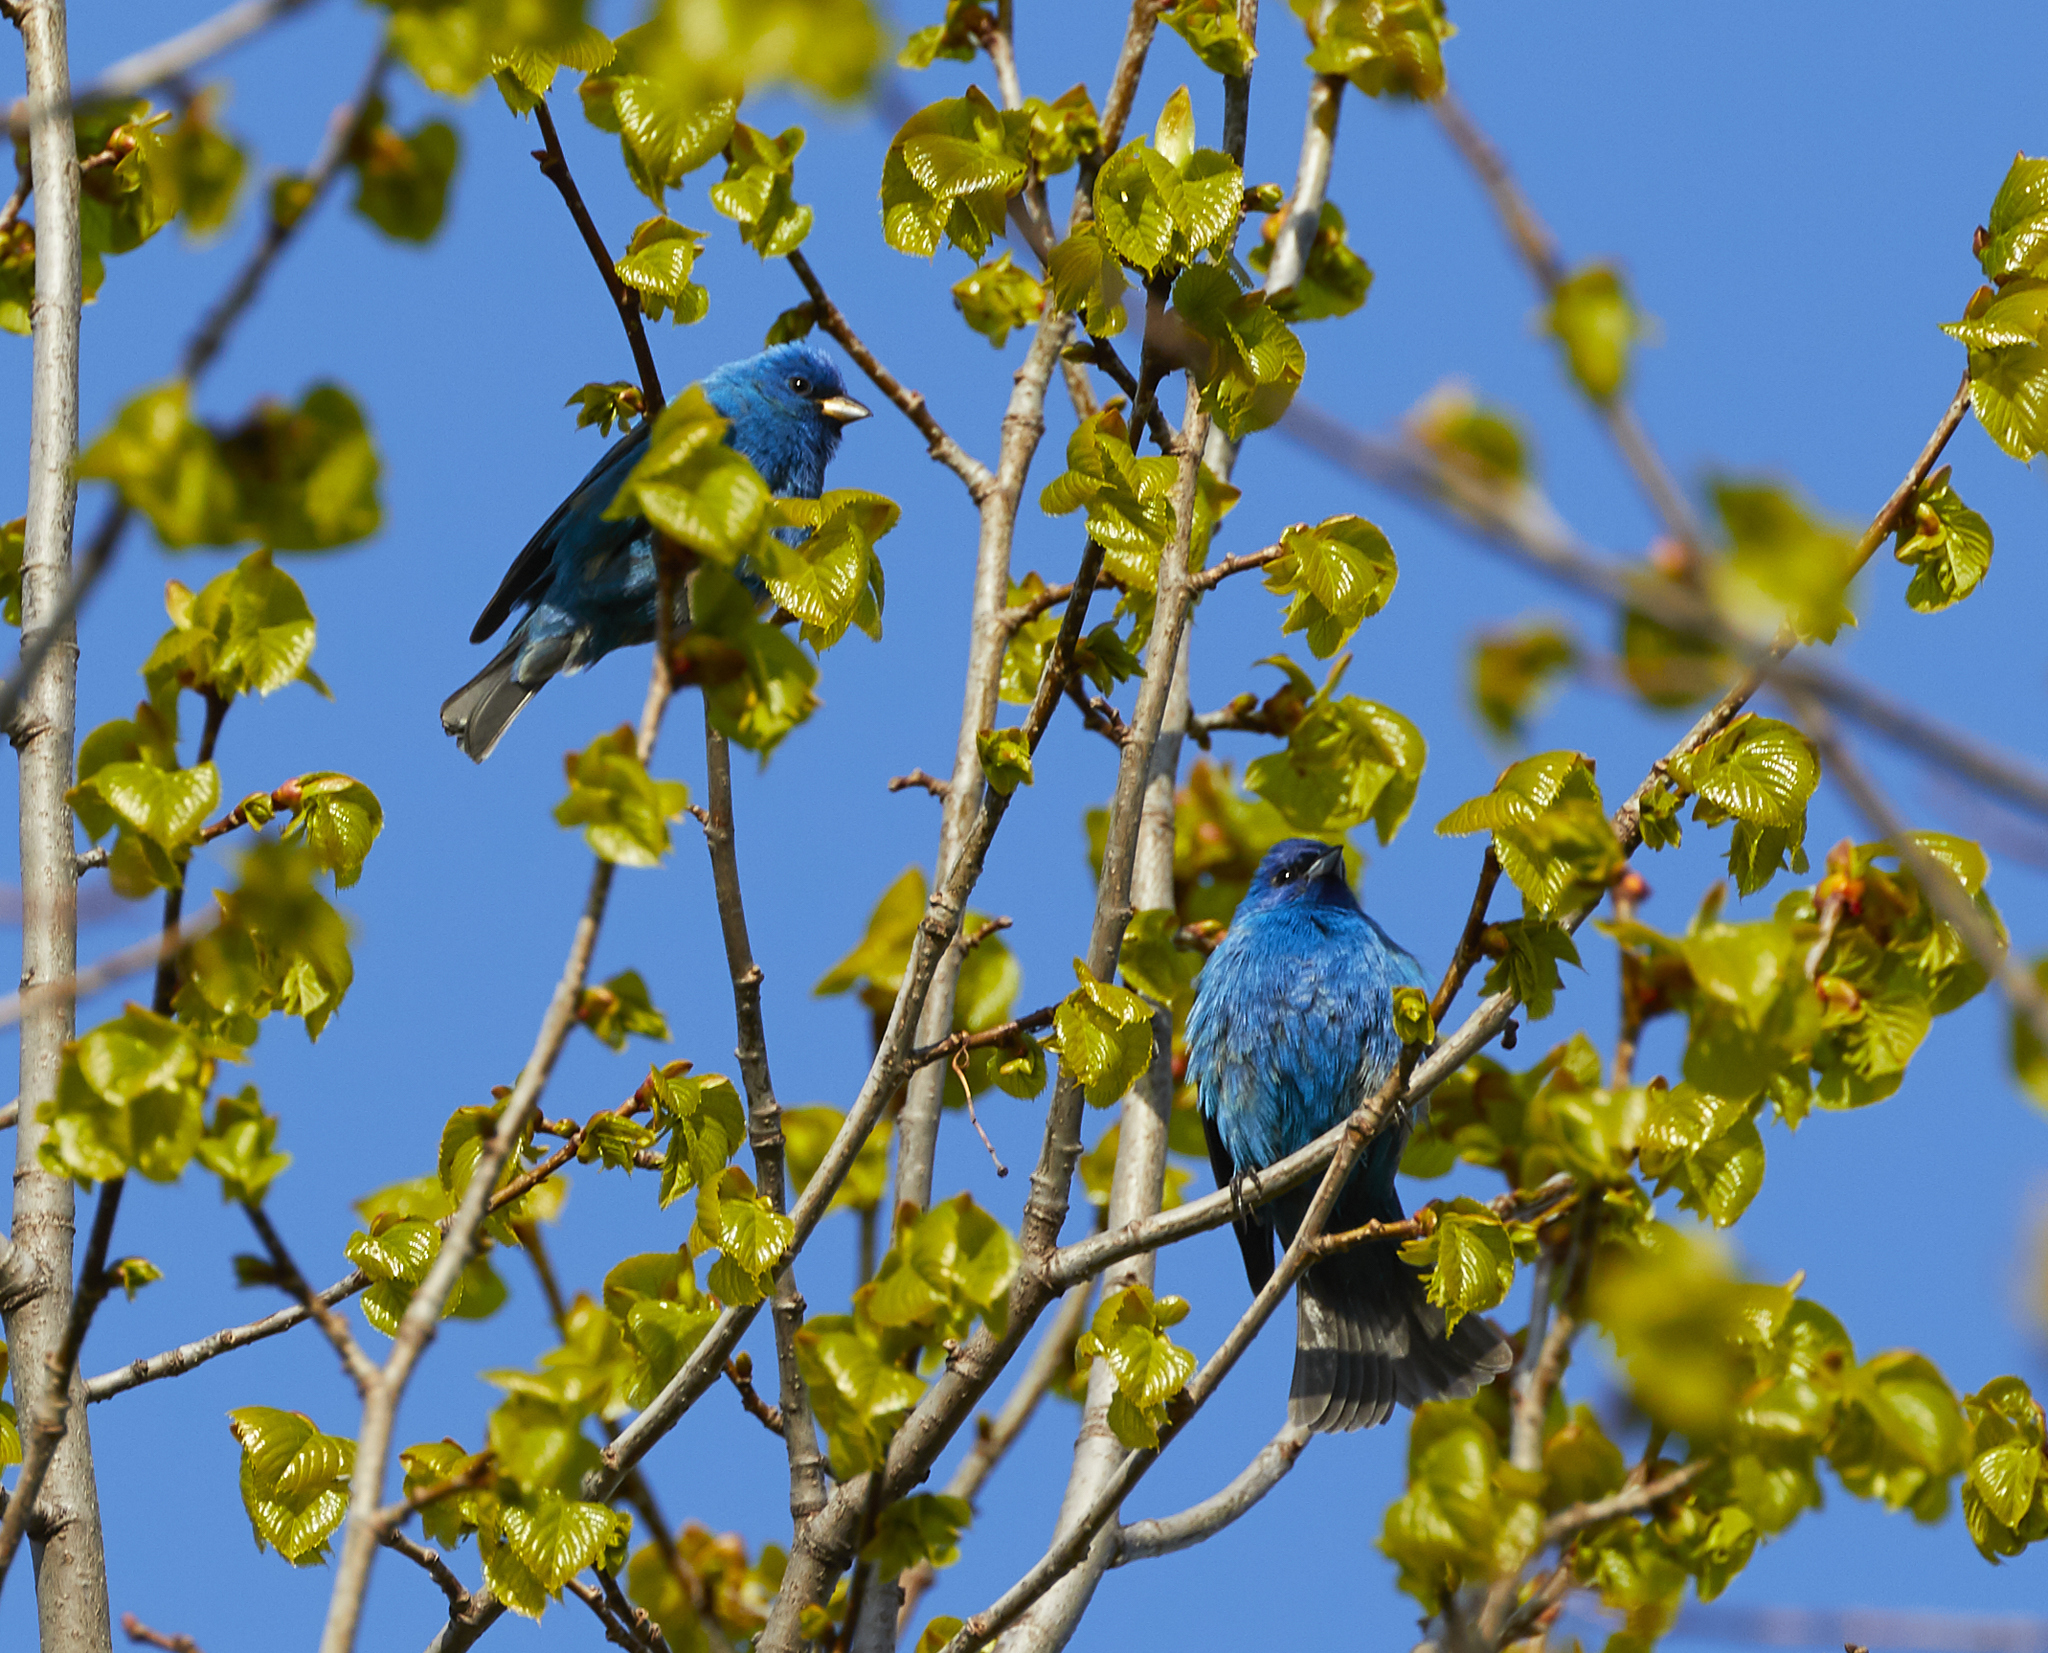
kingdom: Animalia
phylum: Chordata
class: Aves
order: Passeriformes
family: Cardinalidae
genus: Passerina
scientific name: Passerina cyanea
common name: Indigo bunting
